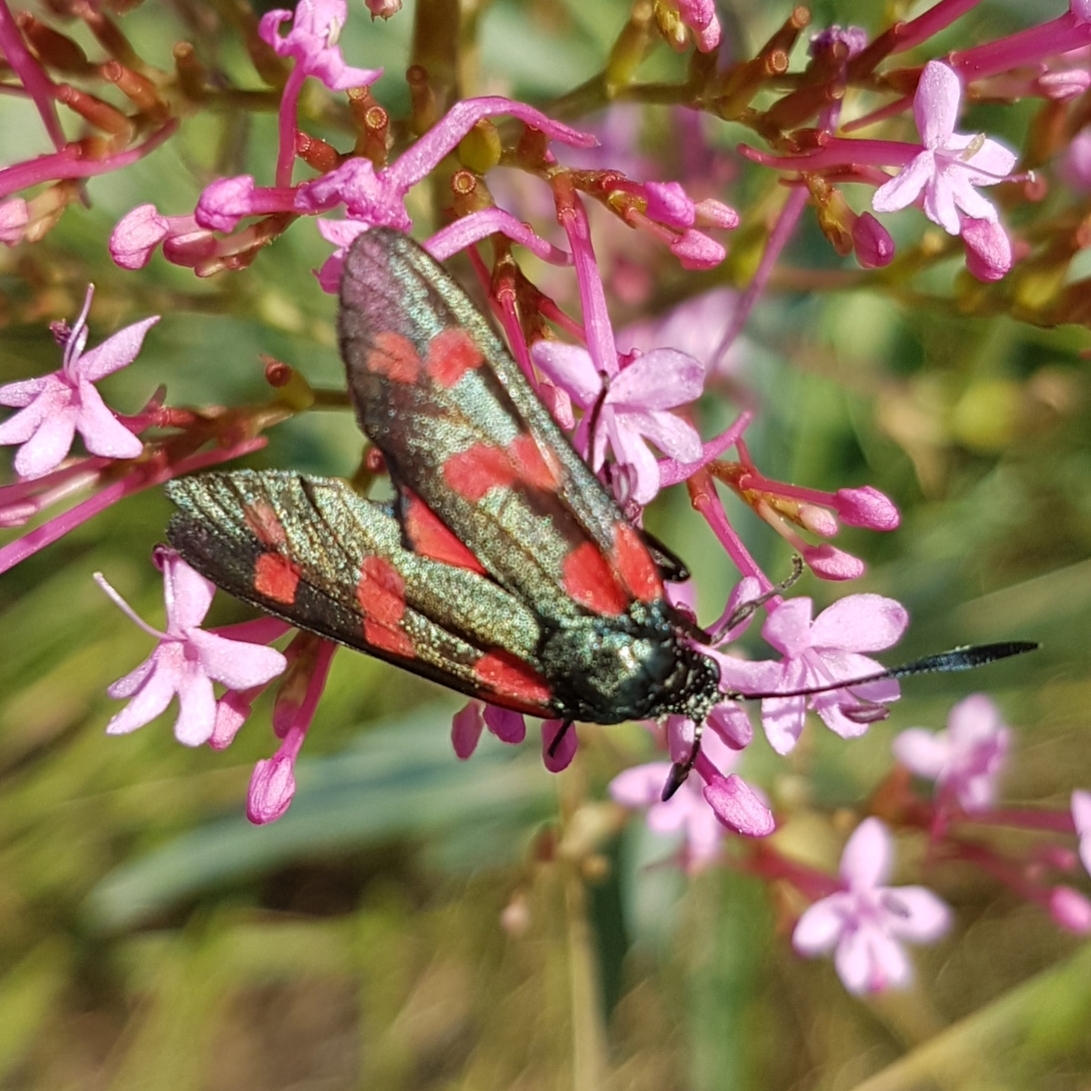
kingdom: Animalia
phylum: Arthropoda
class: Insecta
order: Lepidoptera
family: Zygaenidae
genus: Zygaena
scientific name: Zygaena filipendulae
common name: Six-spot burnet
